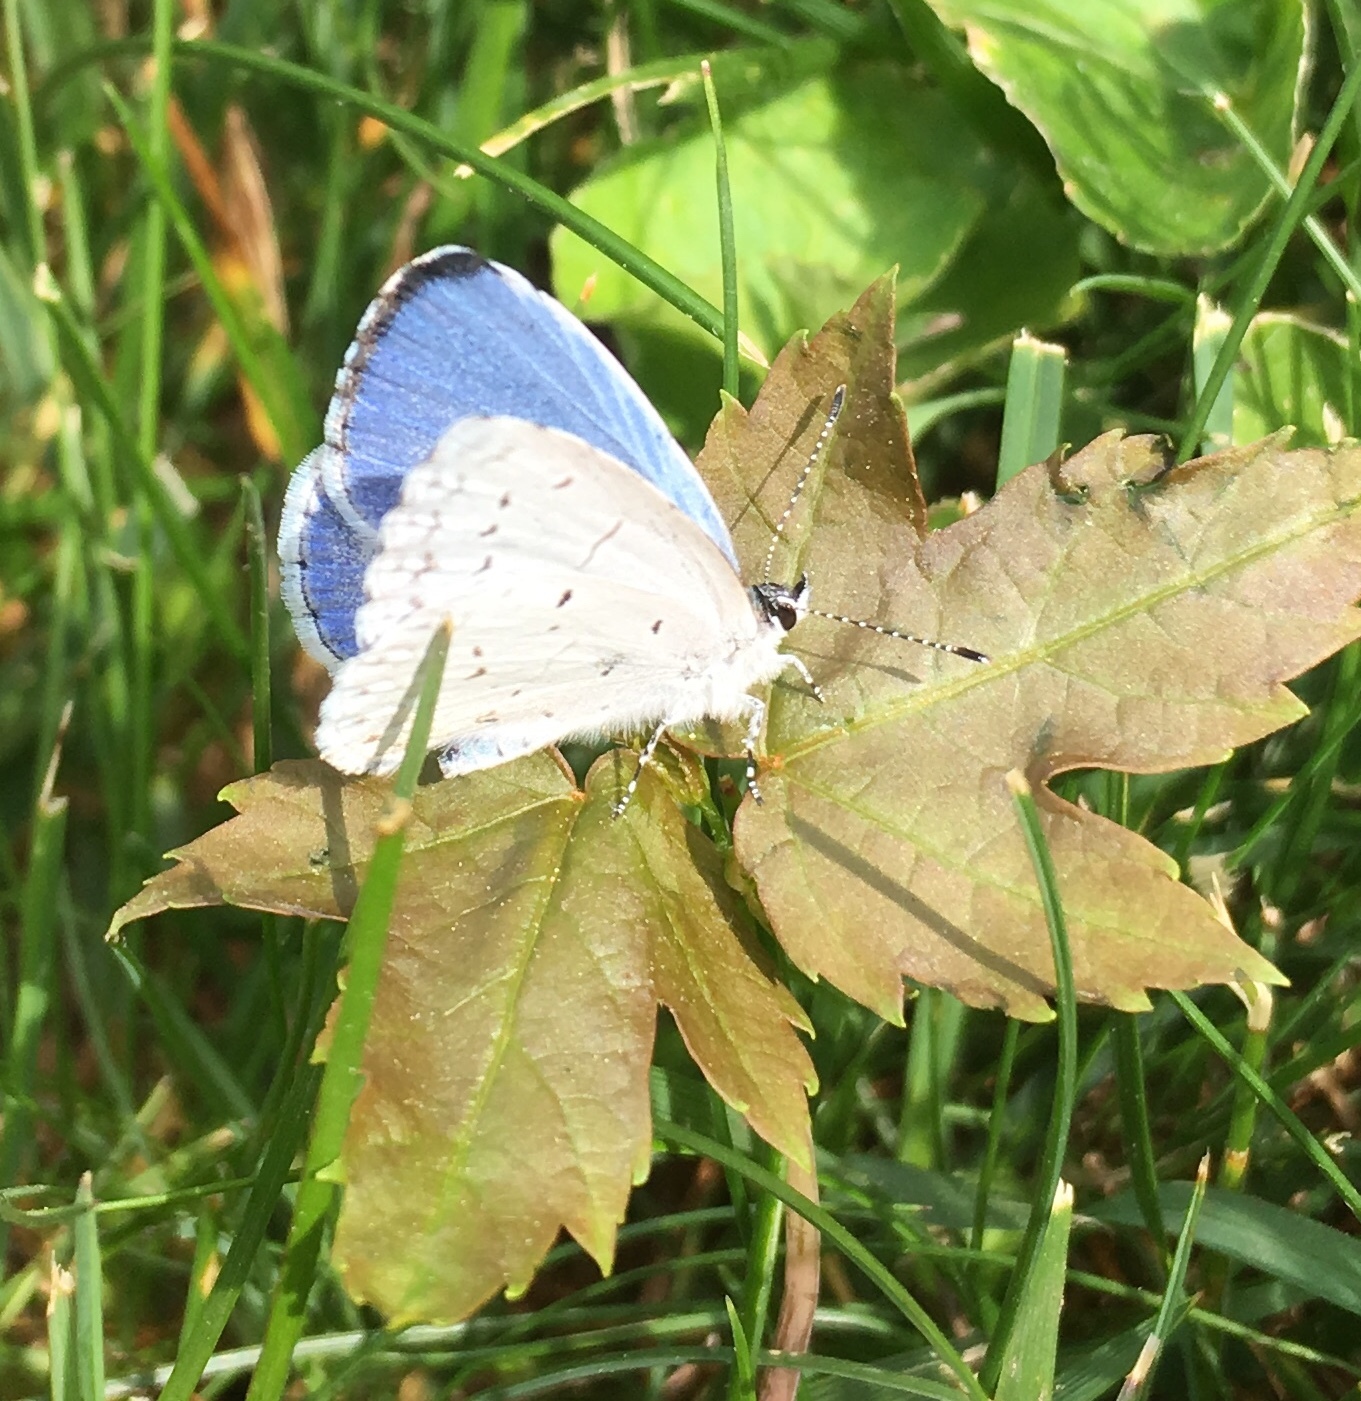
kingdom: Animalia
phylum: Arthropoda
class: Insecta
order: Lepidoptera
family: Lycaenidae
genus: Cyaniris
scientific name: Cyaniris neglecta
